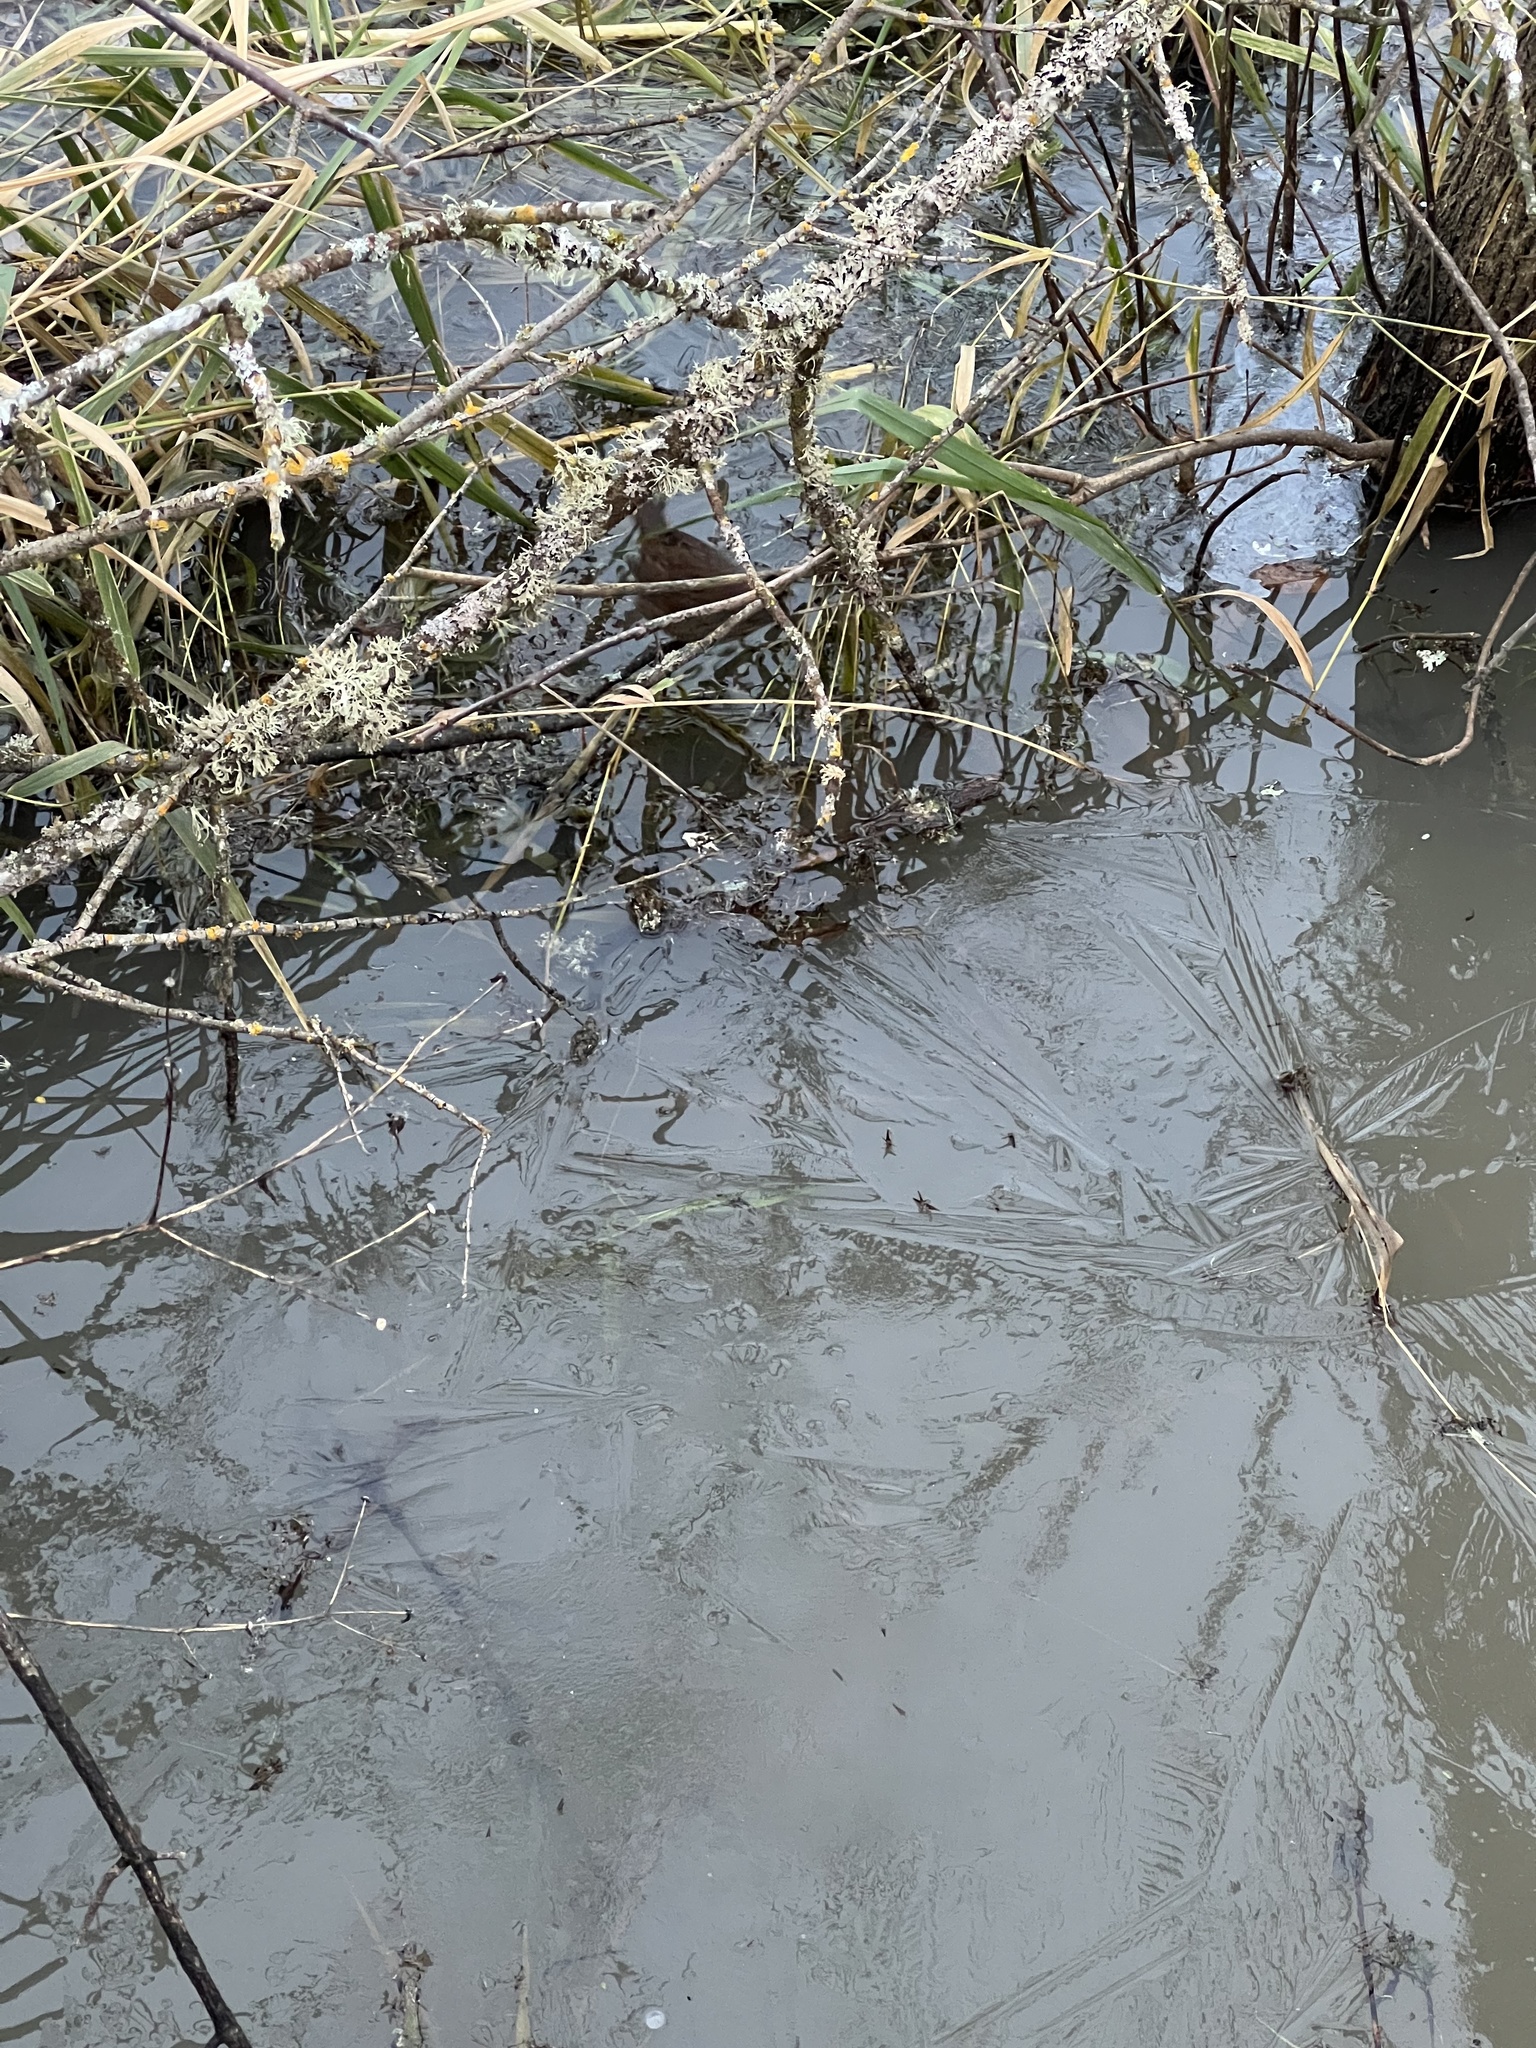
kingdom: Animalia
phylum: Chordata
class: Aves
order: Passeriformes
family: Passerellidae
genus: Melospiza
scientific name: Melospiza melodia
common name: Song sparrow
